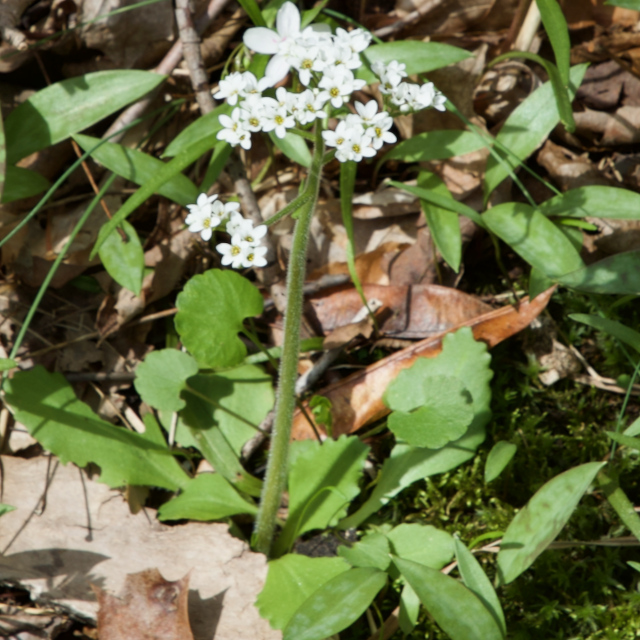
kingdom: Plantae
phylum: Tracheophyta
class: Magnoliopsida
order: Saxifragales
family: Saxifragaceae
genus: Micranthes
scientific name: Micranthes virginiensis
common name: Early saxifrage
